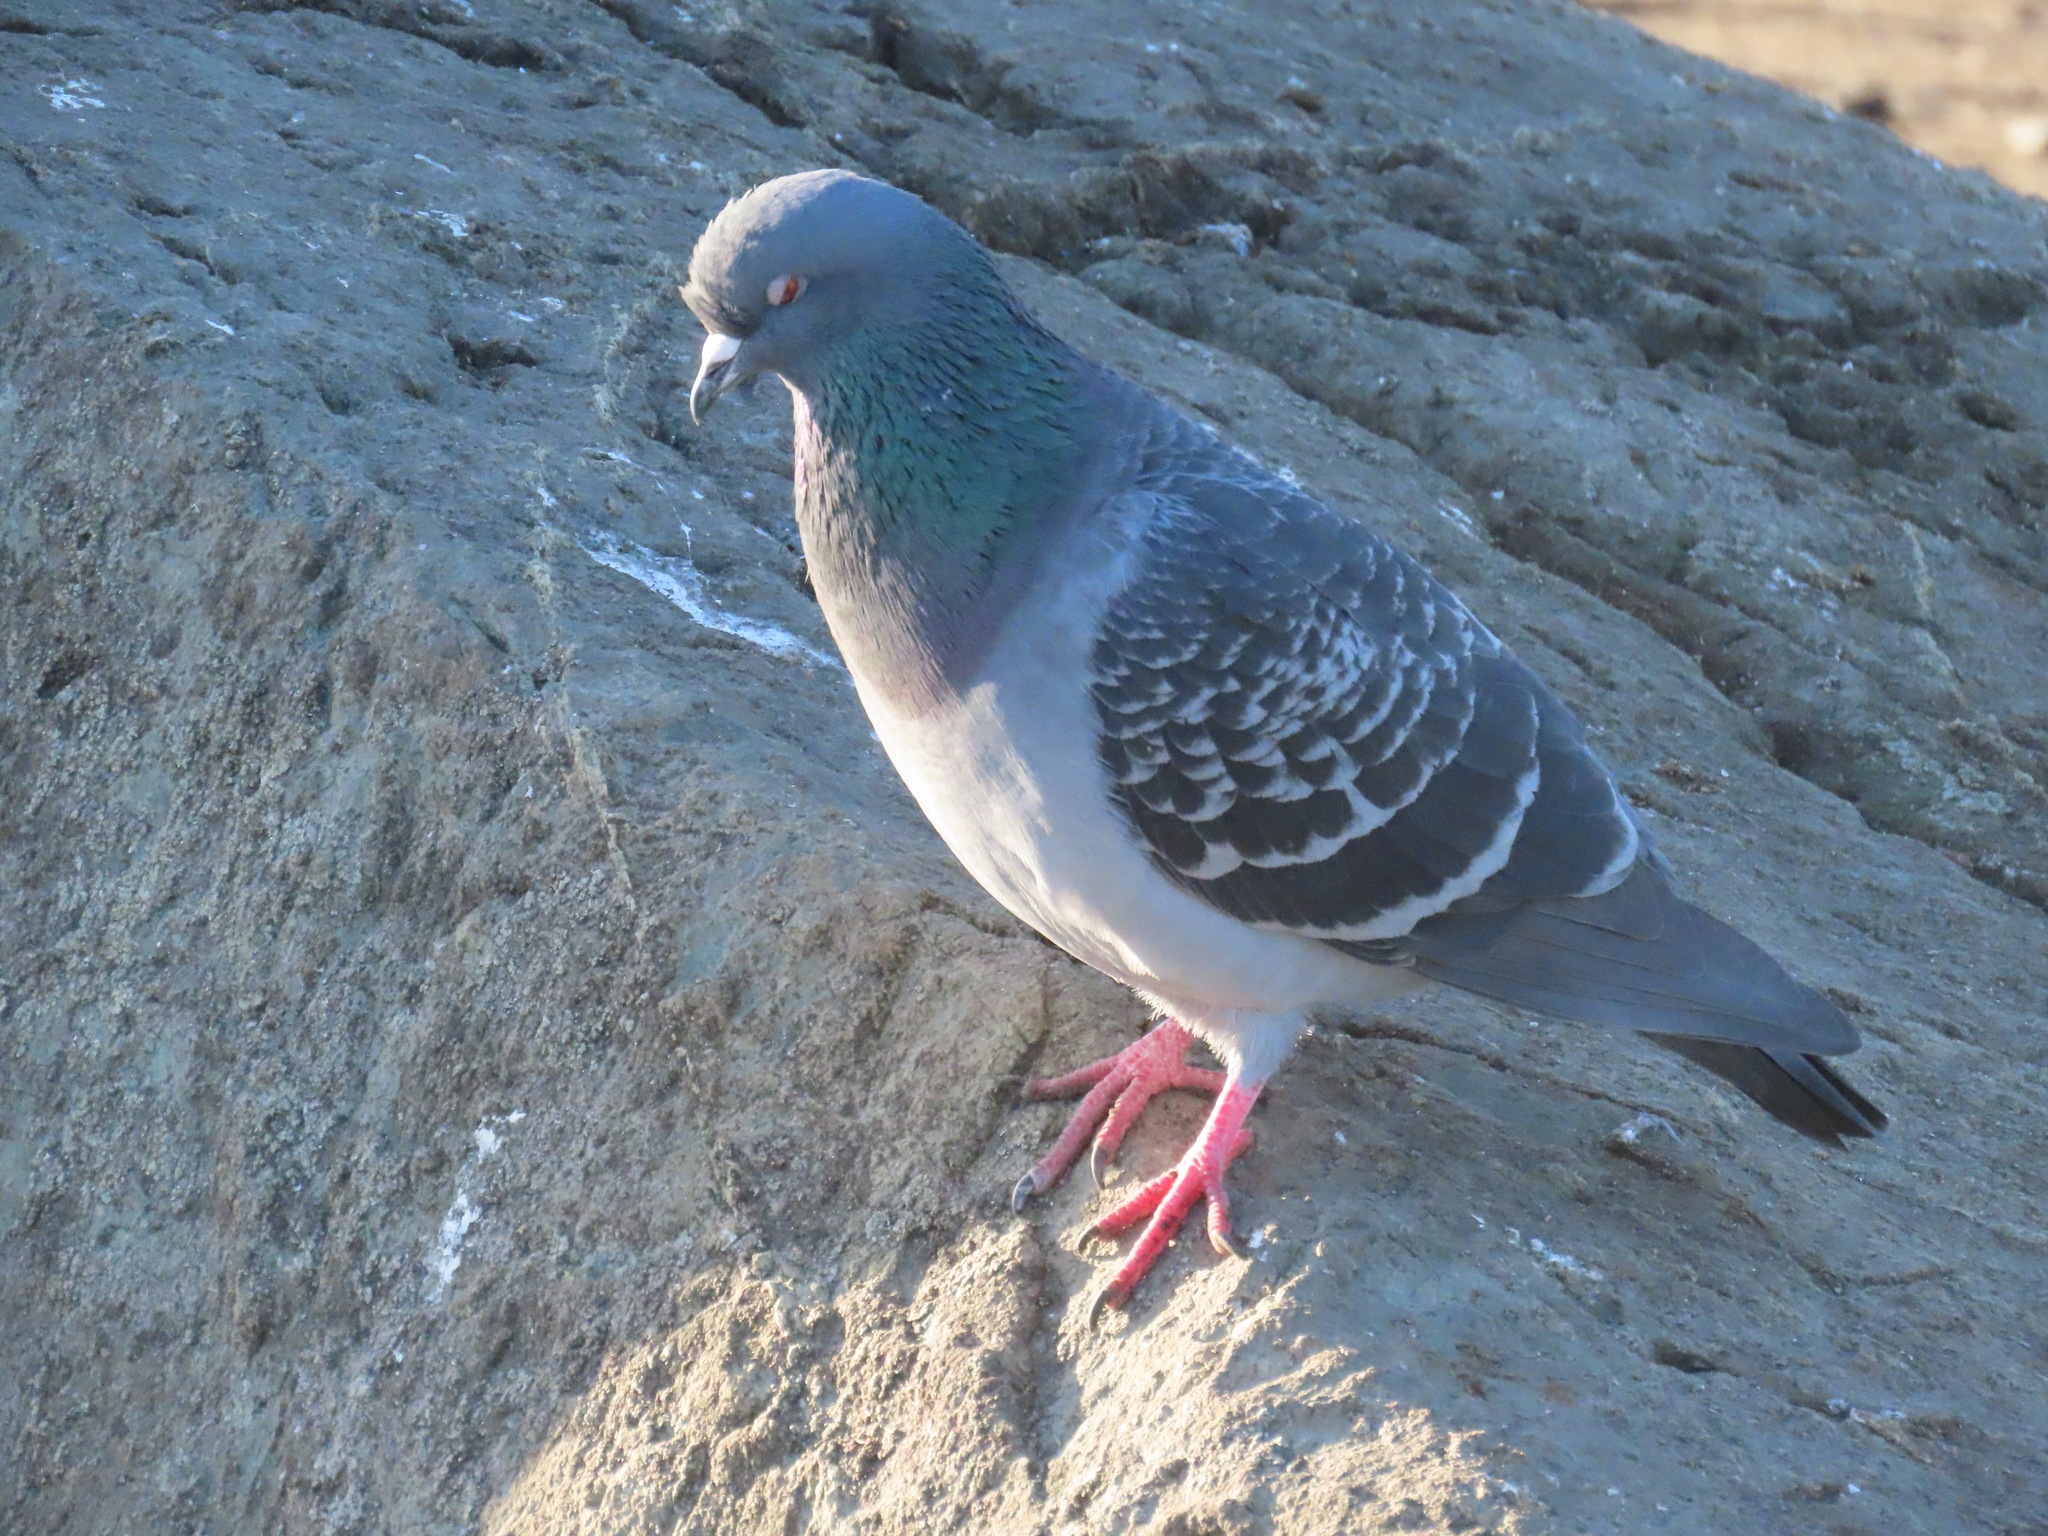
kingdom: Animalia
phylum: Chordata
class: Aves
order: Columbiformes
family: Columbidae
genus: Columba
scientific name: Columba livia
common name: Rock pigeon
